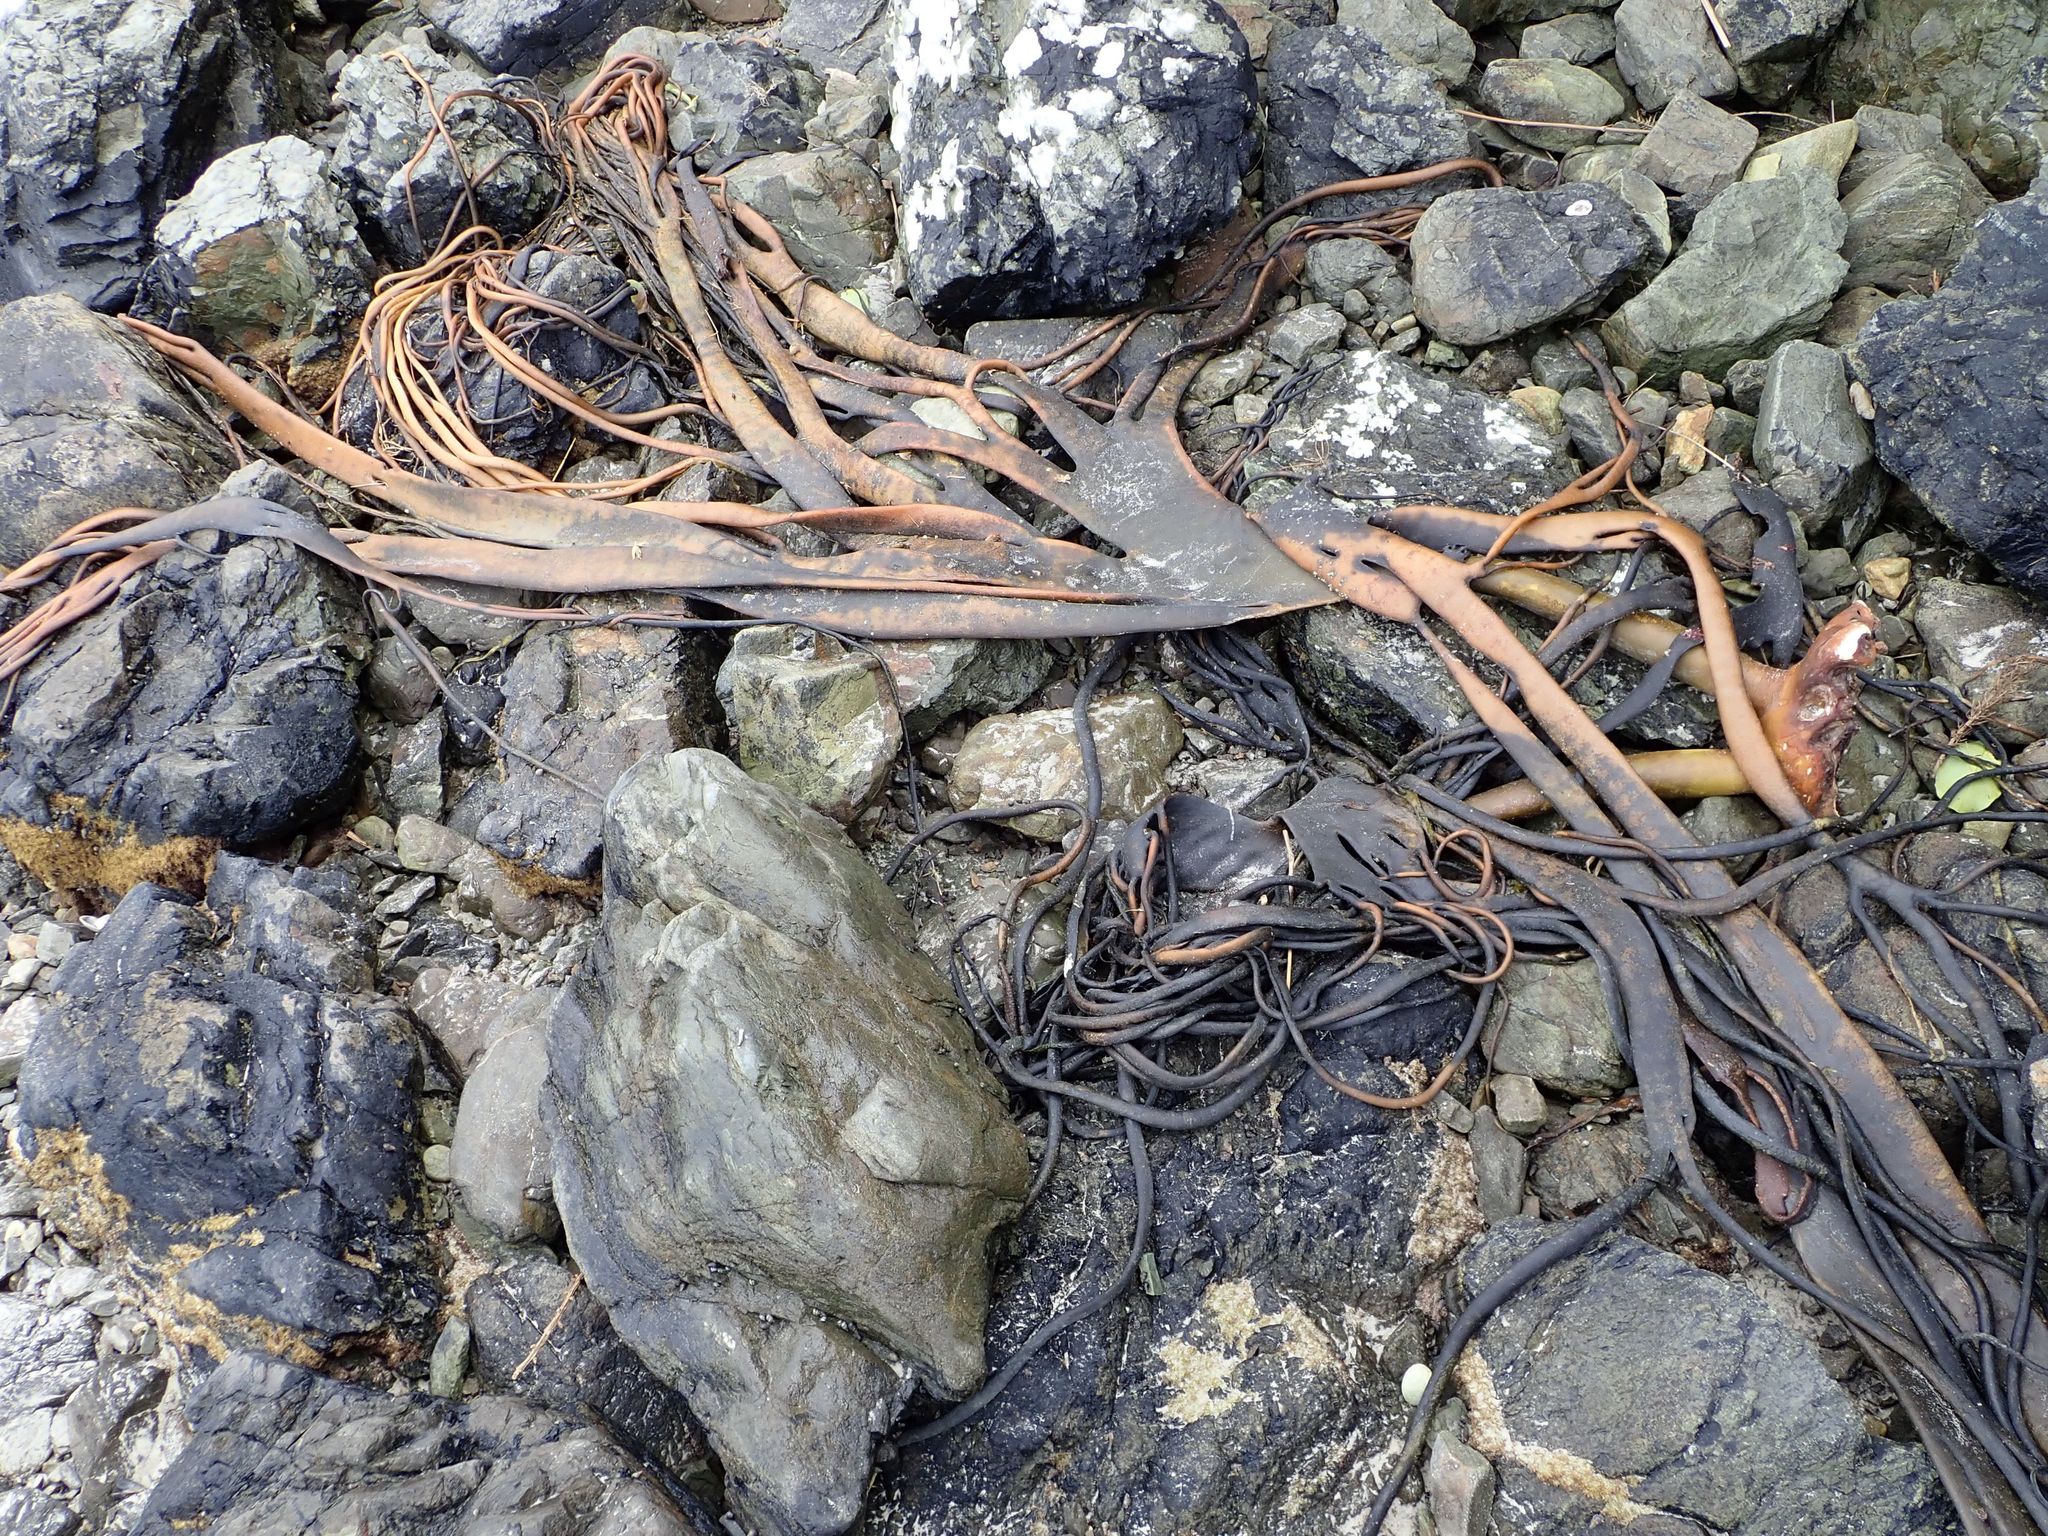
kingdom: Chromista
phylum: Ochrophyta
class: Phaeophyceae
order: Fucales
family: Durvillaeaceae
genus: Durvillaea
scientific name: Durvillaea antarctica
